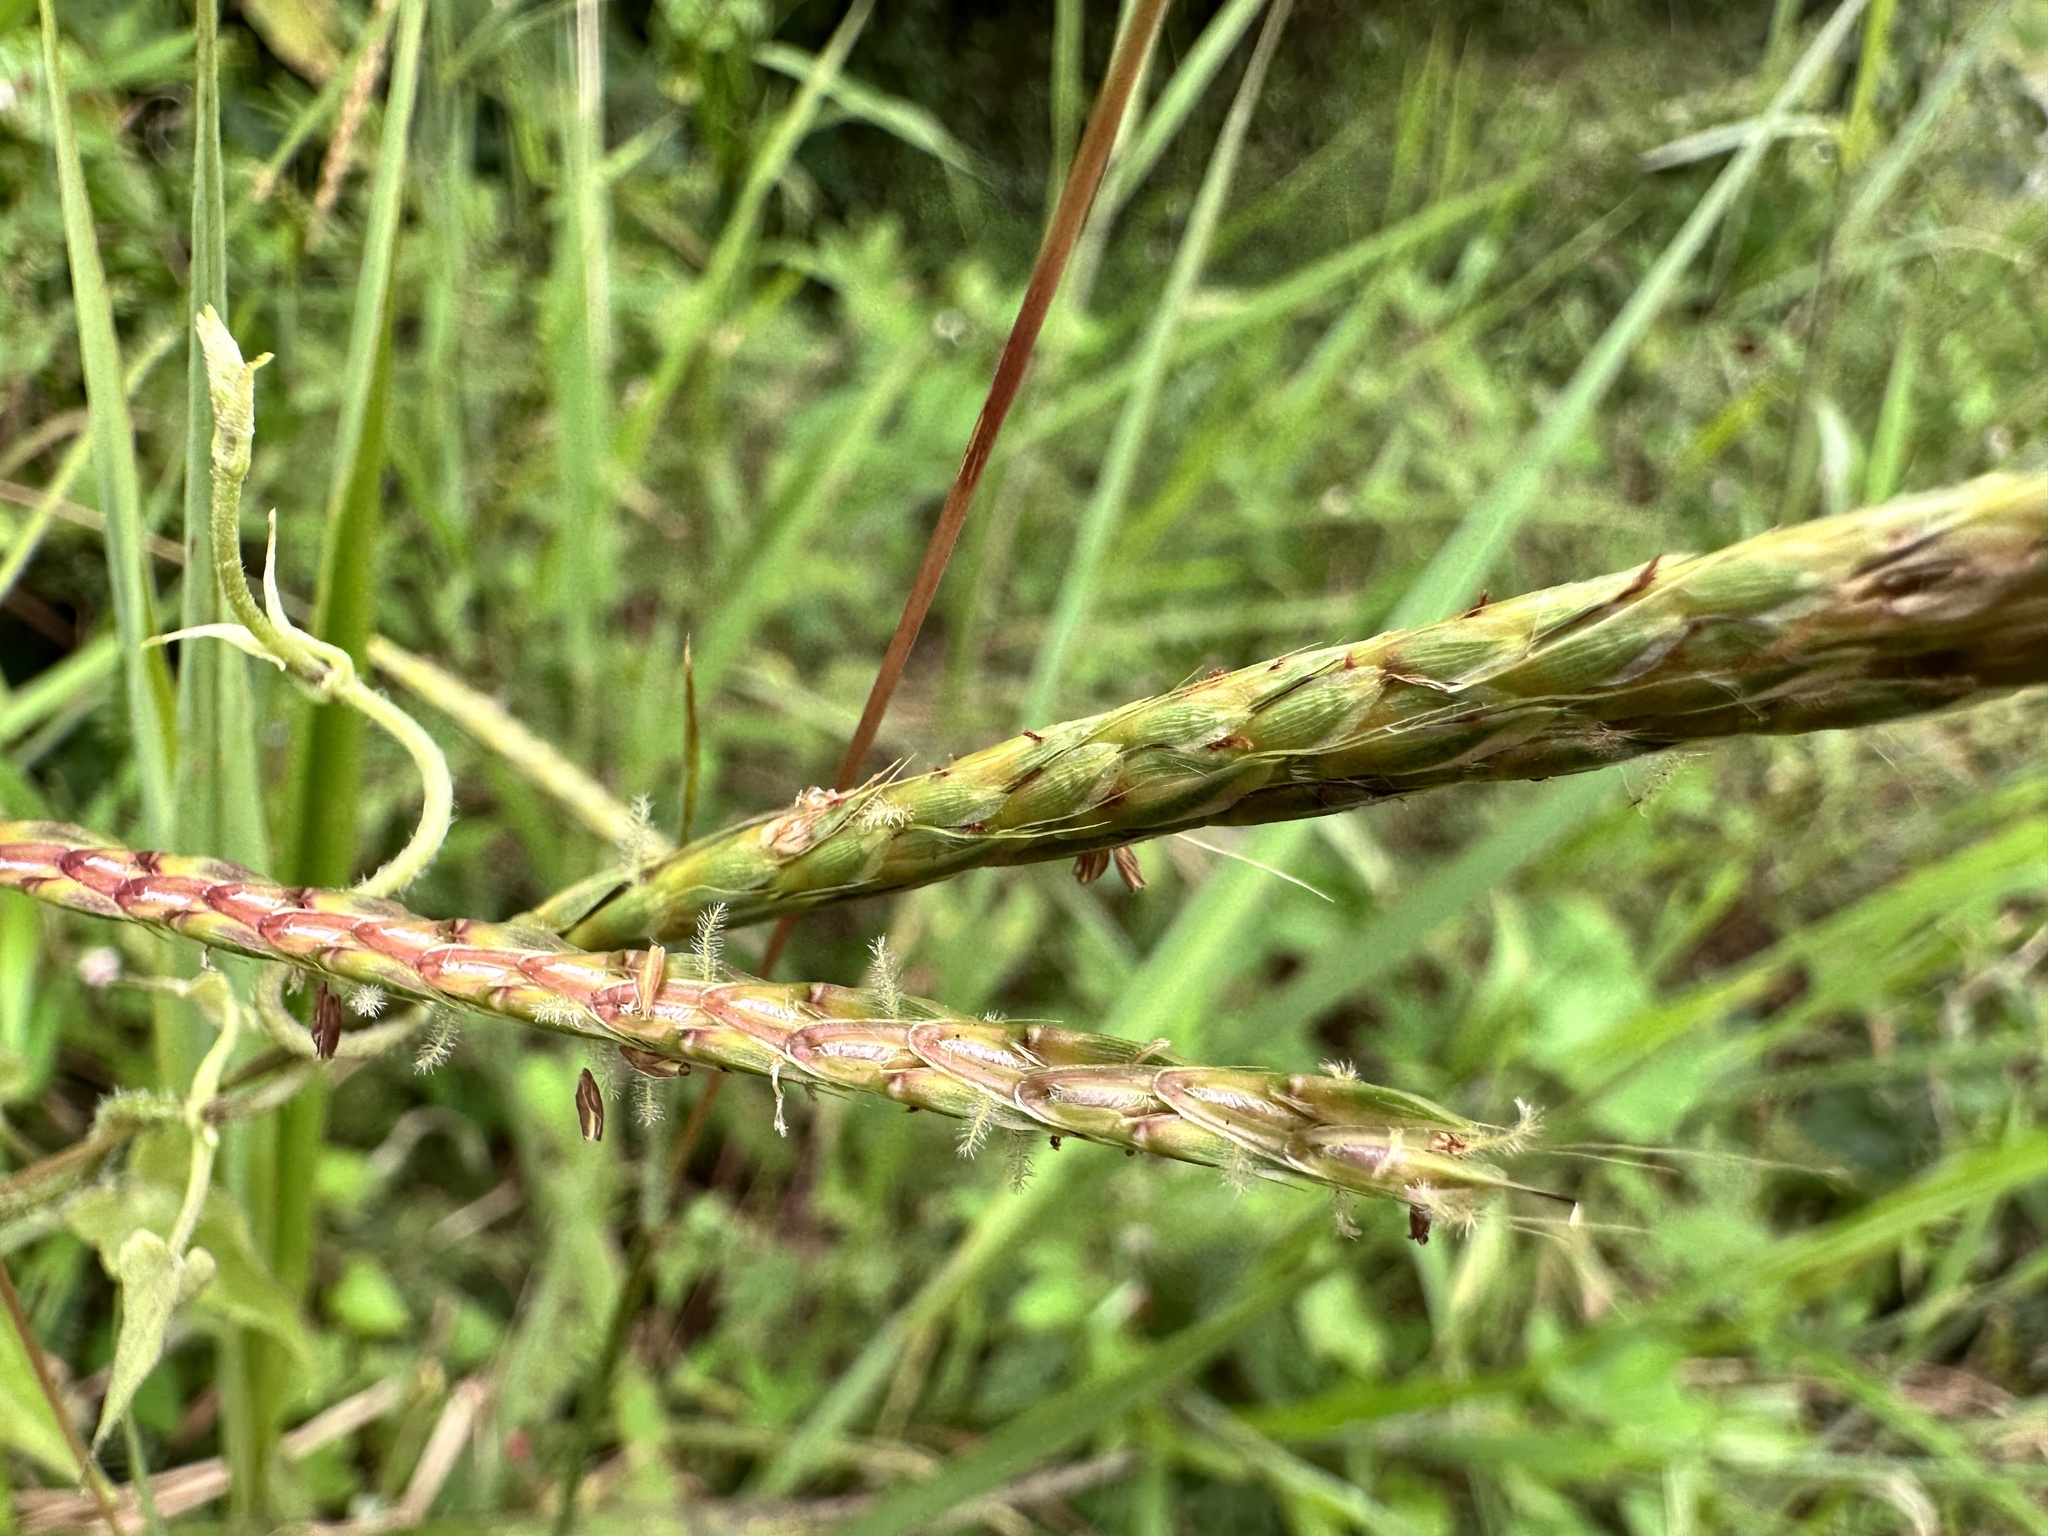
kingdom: Plantae
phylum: Tracheophyta
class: Liliopsida
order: Poales
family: Poaceae
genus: Ischaemum
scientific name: Ischaemum ciliare
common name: Grass
